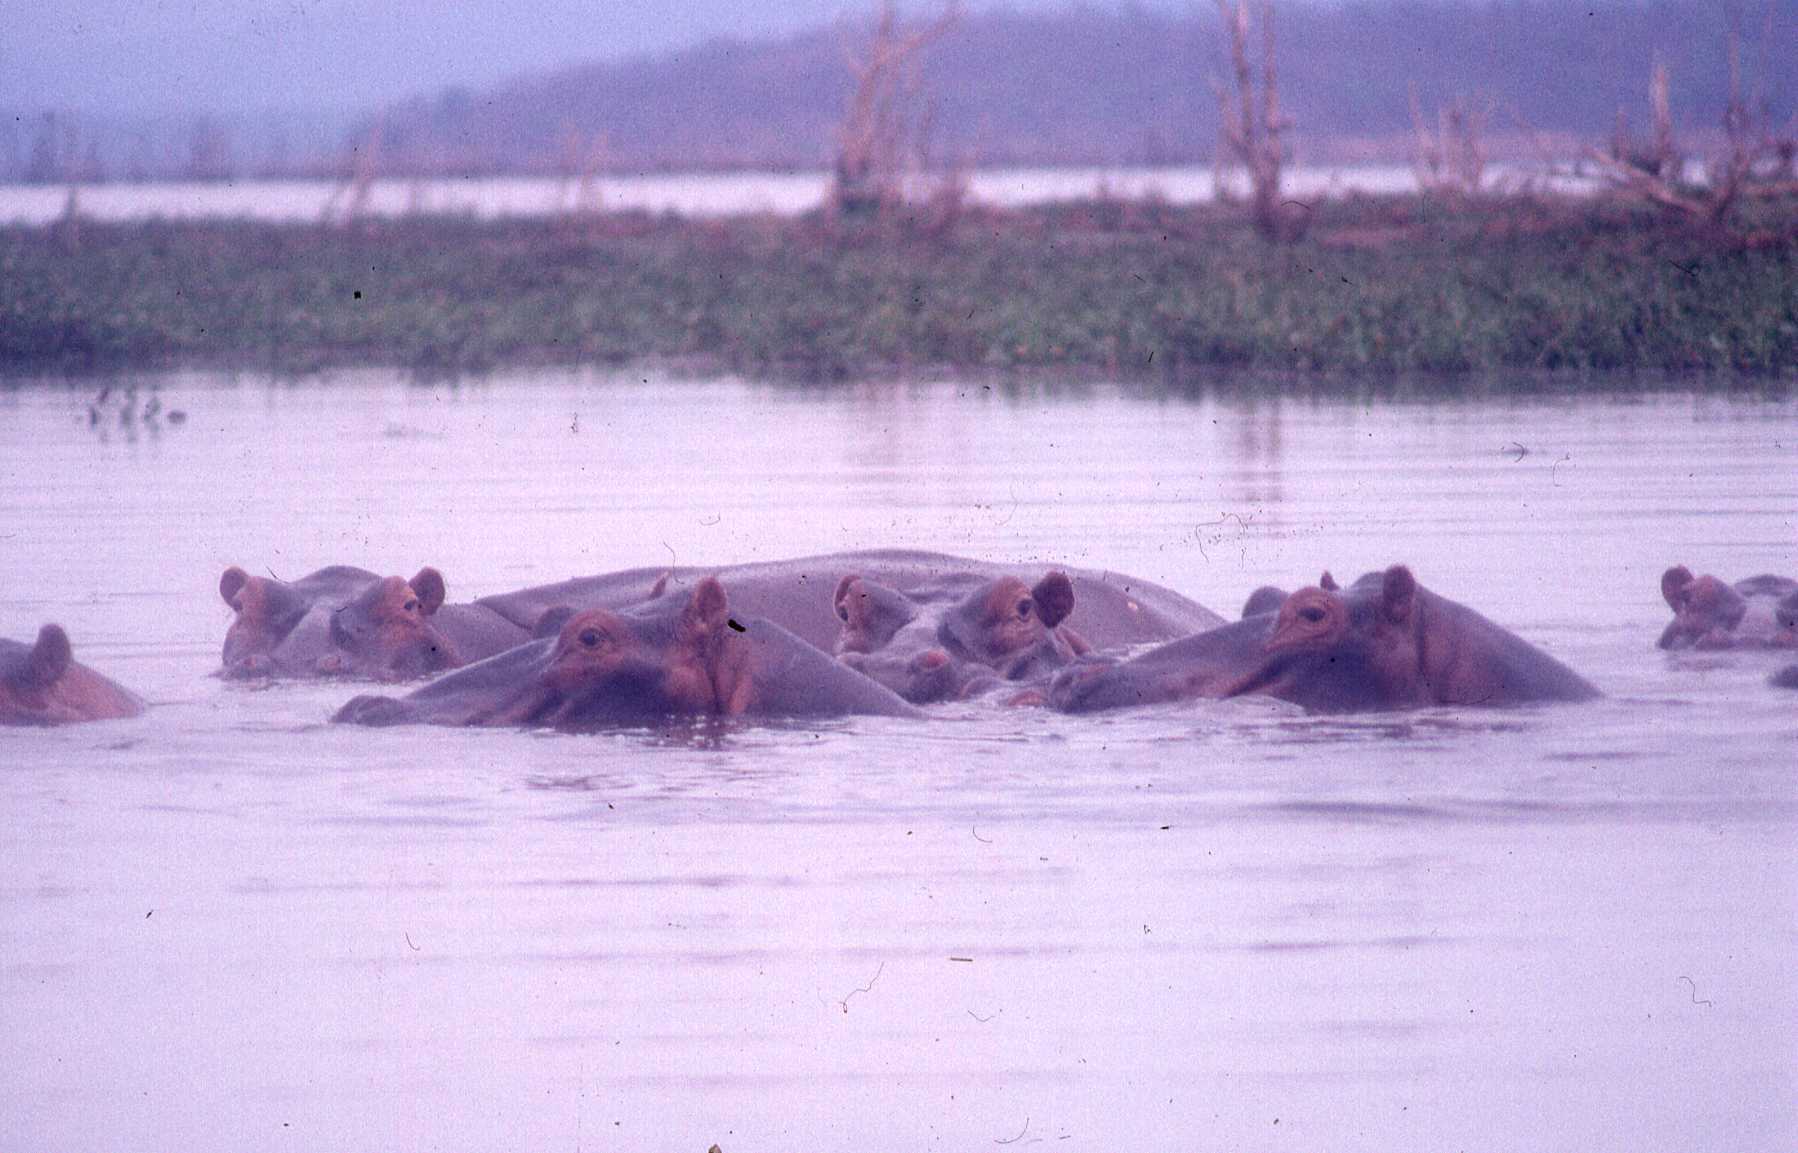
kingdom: Animalia
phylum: Chordata
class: Mammalia
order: Artiodactyla
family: Hippopotamidae
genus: Hippopotamus
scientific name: Hippopotamus amphibius
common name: Common hippopotamus
